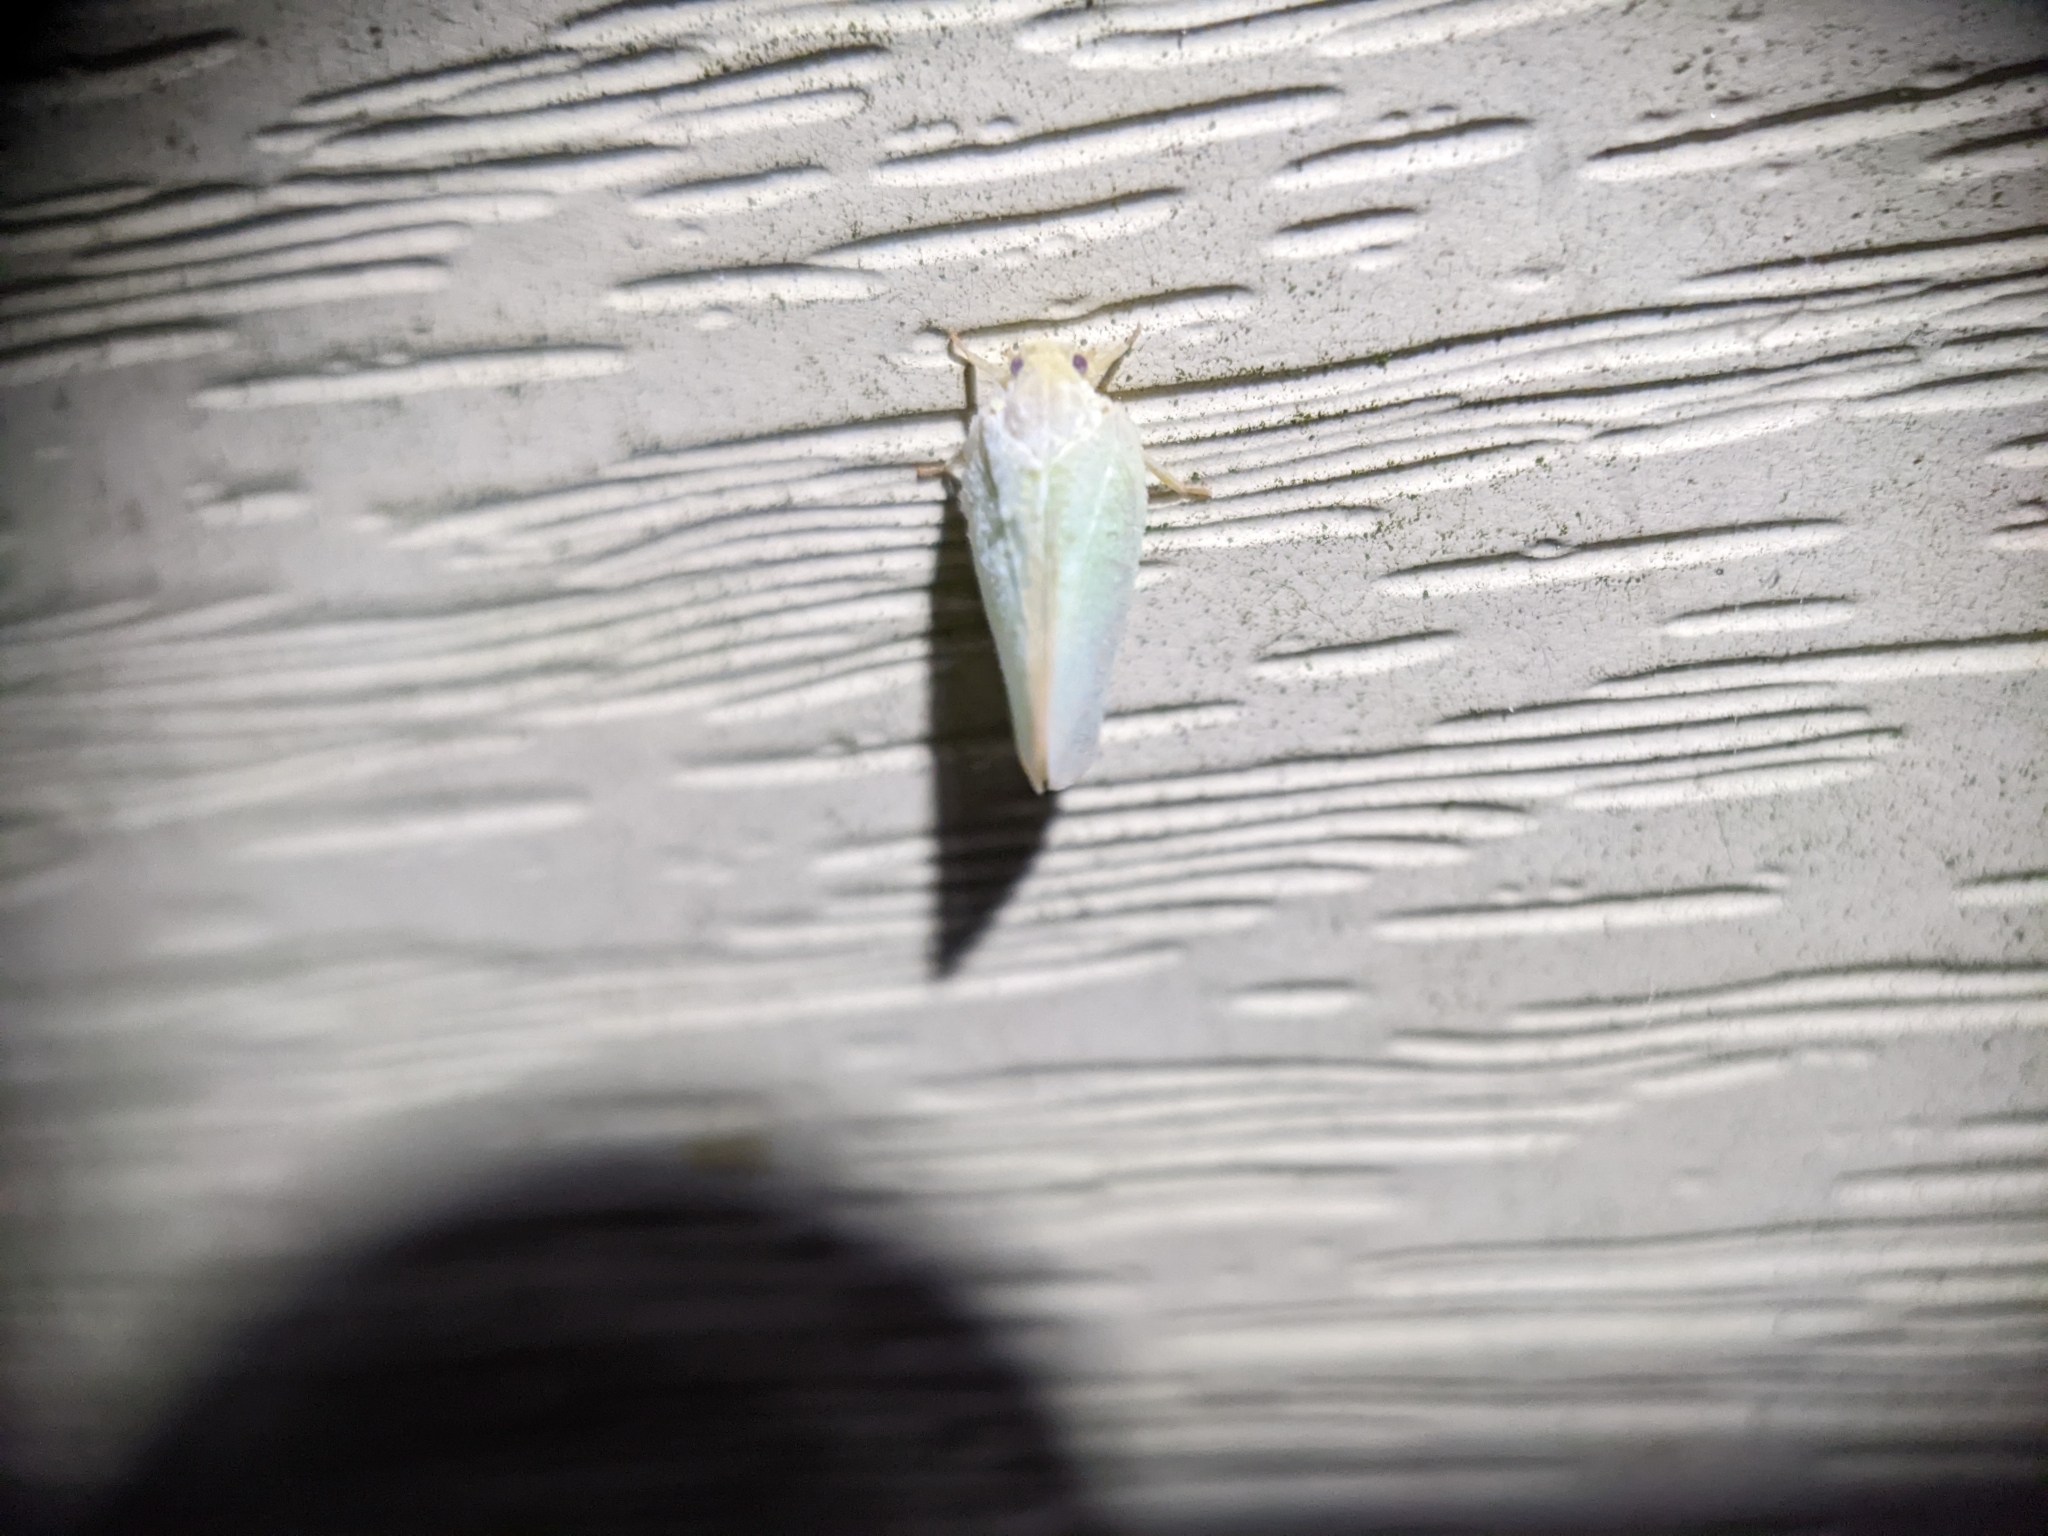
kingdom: Animalia
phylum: Arthropoda
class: Insecta
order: Hemiptera
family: Flatidae
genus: Ormenoides
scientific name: Ormenoides venusta
